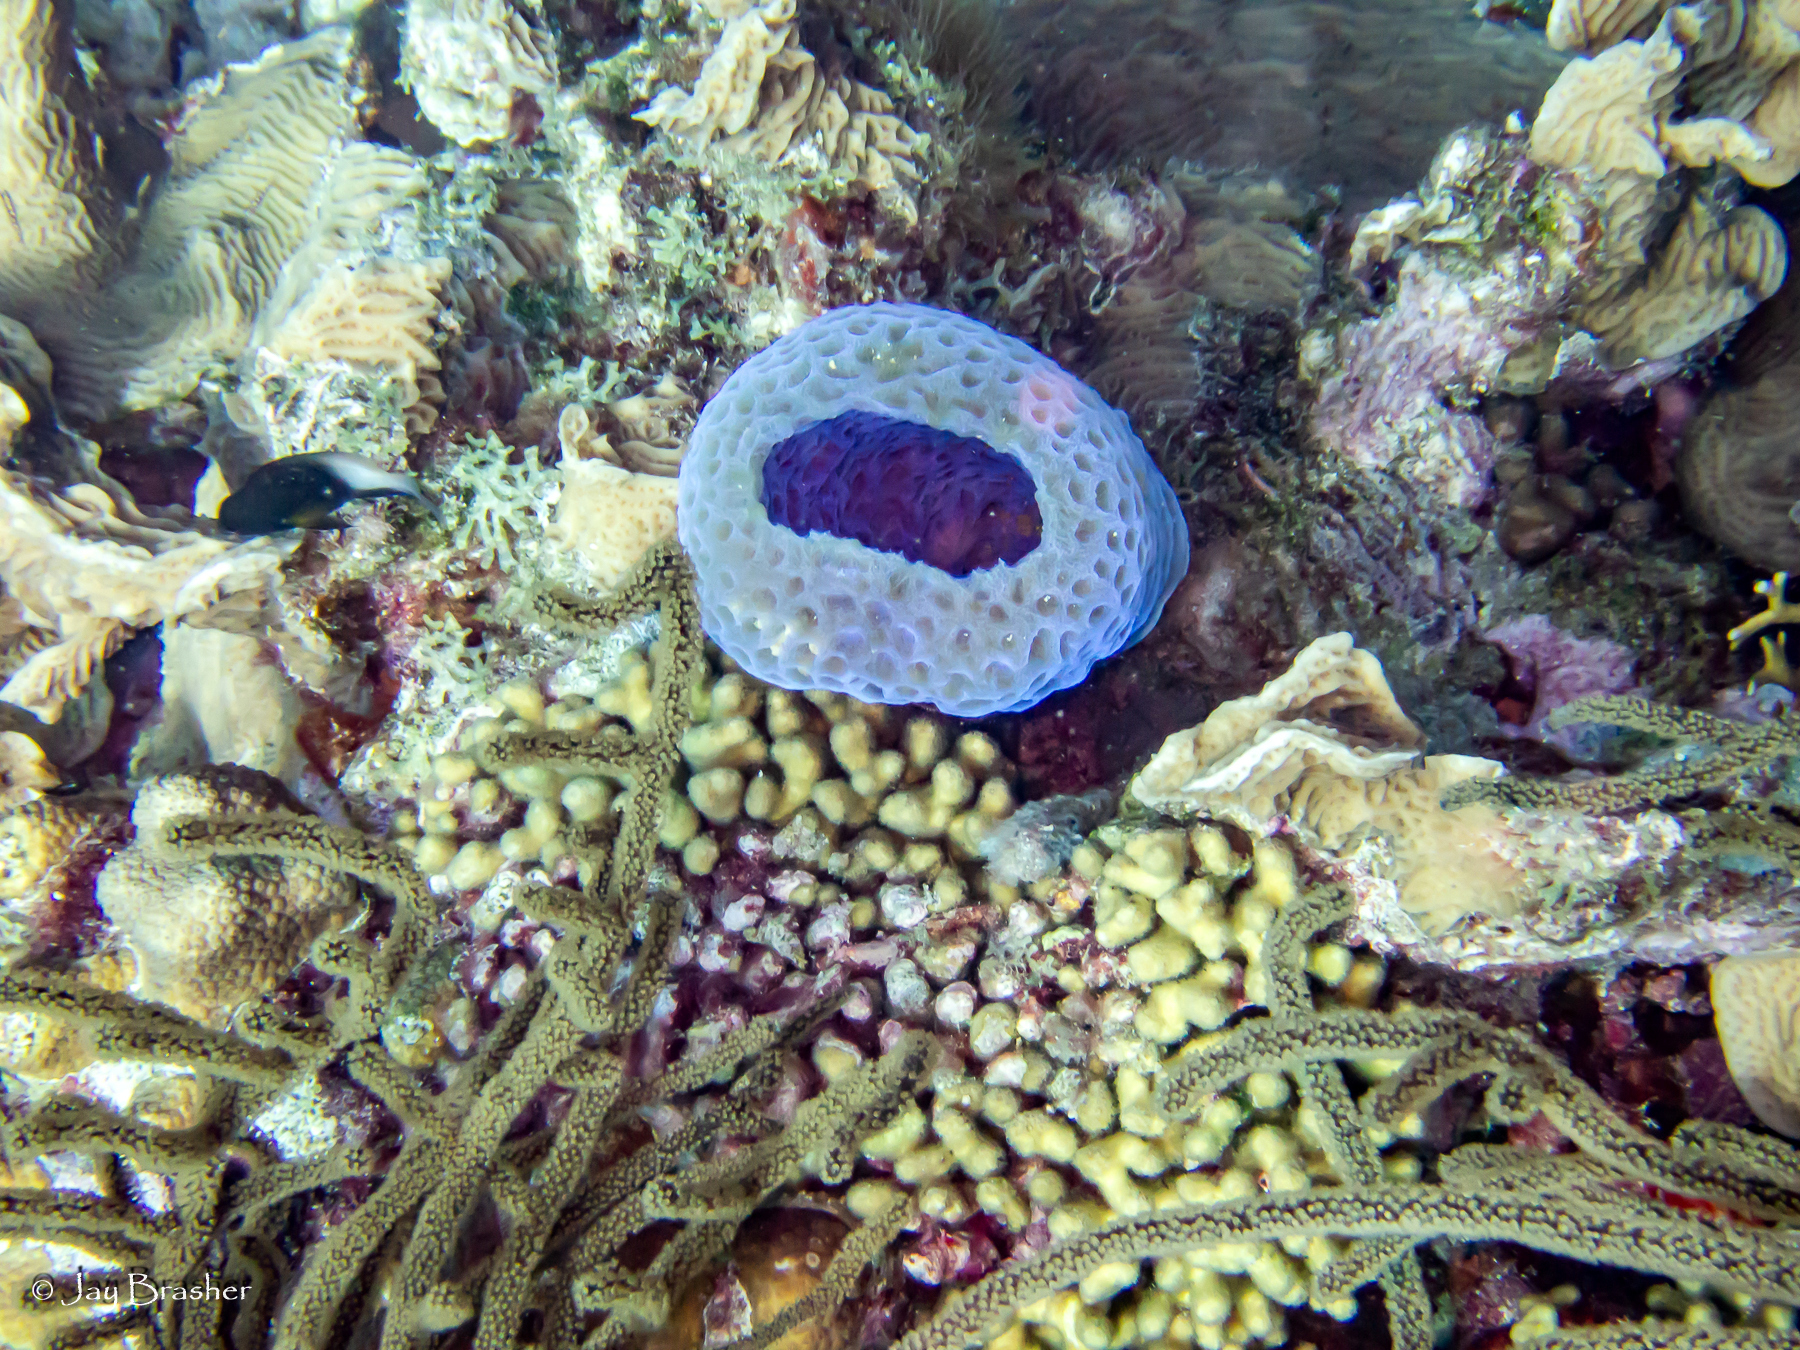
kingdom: Animalia
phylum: Cnidaria
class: Anthozoa
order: Scleractinia
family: Pocilloporidae
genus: Madracis
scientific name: Madracis auretenra
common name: Yellow pencil coral
